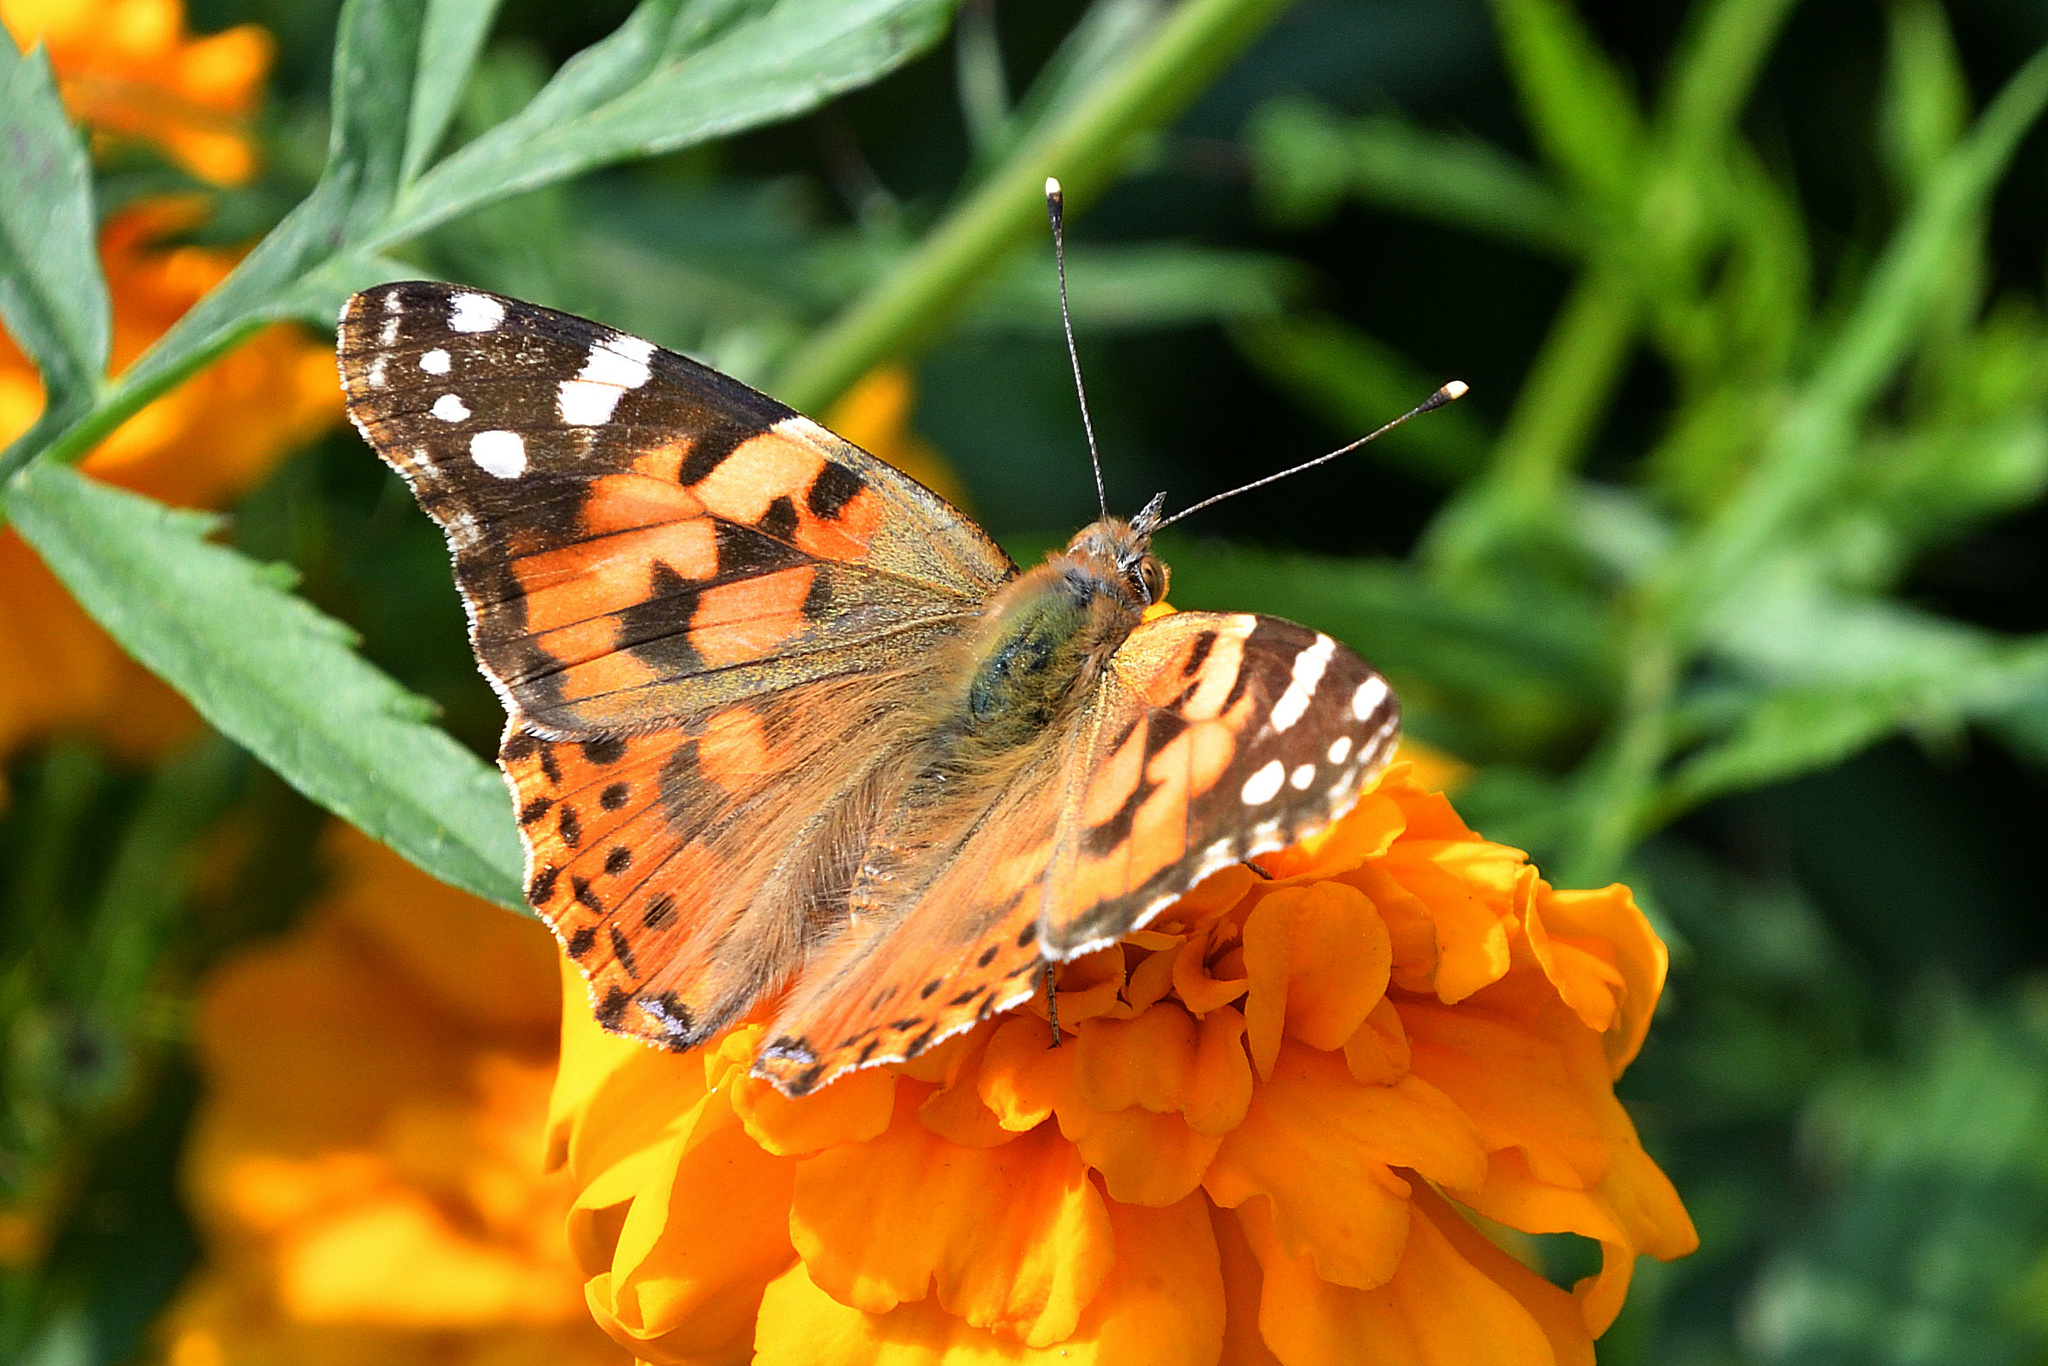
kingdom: Animalia
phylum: Arthropoda
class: Insecta
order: Lepidoptera
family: Nymphalidae
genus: Vanessa
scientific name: Vanessa cardui
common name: Painted lady
